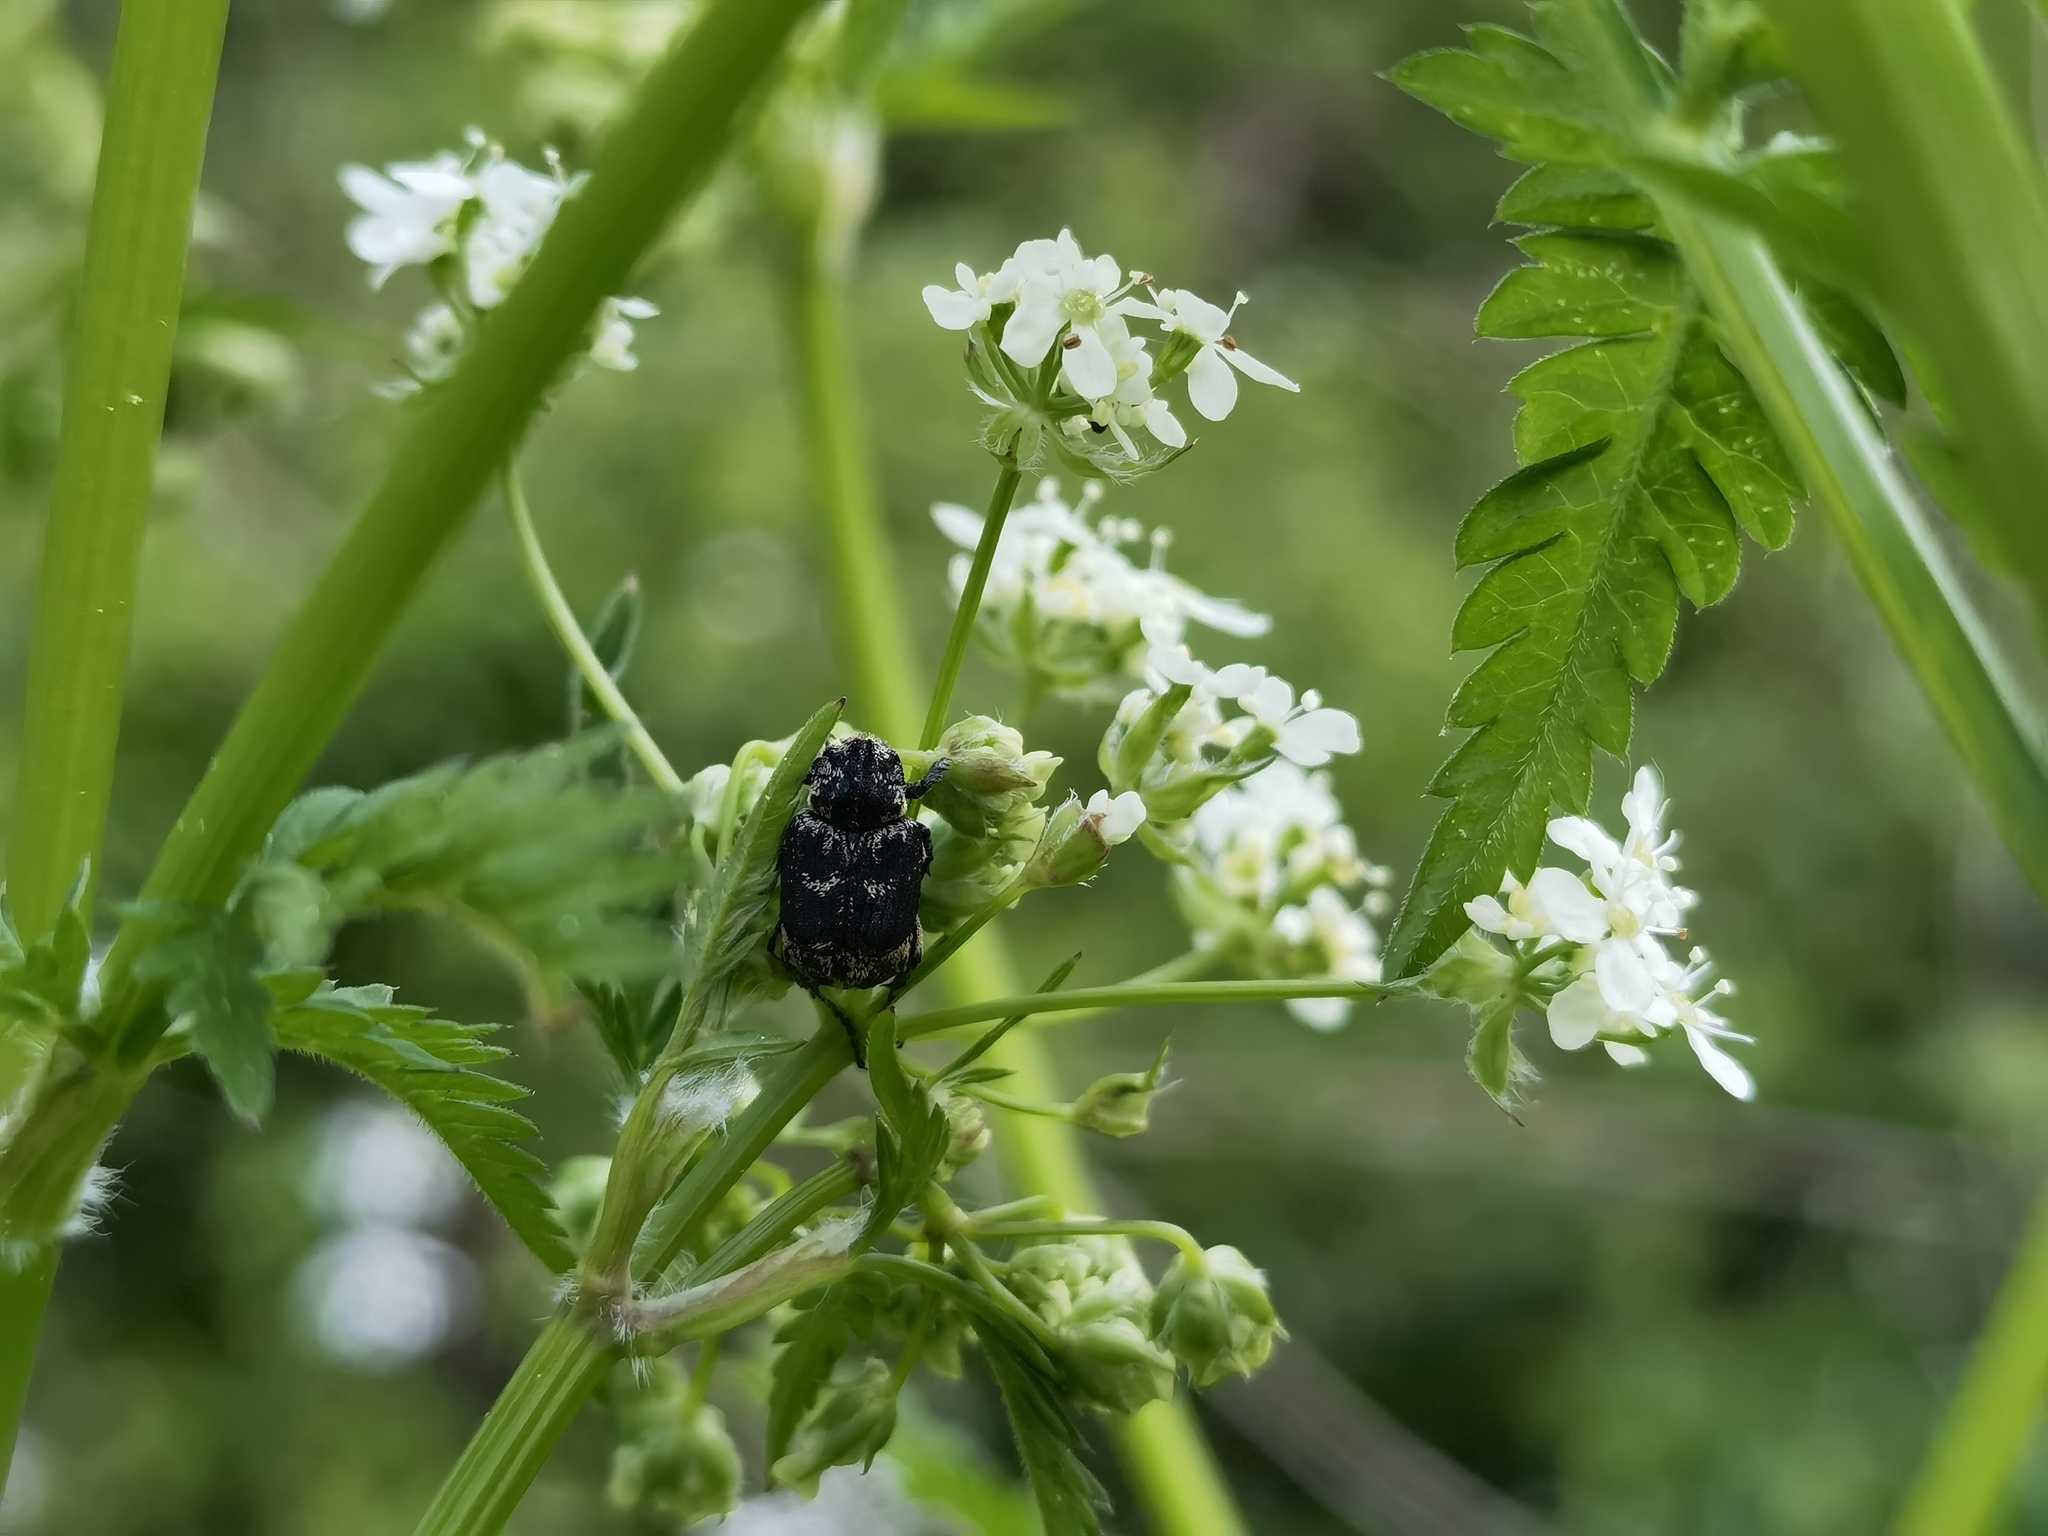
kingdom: Animalia
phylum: Arthropoda
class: Insecta
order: Coleoptera
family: Scarabaeidae
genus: Valgus
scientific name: Valgus hemipterus
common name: Bug flower chafer
